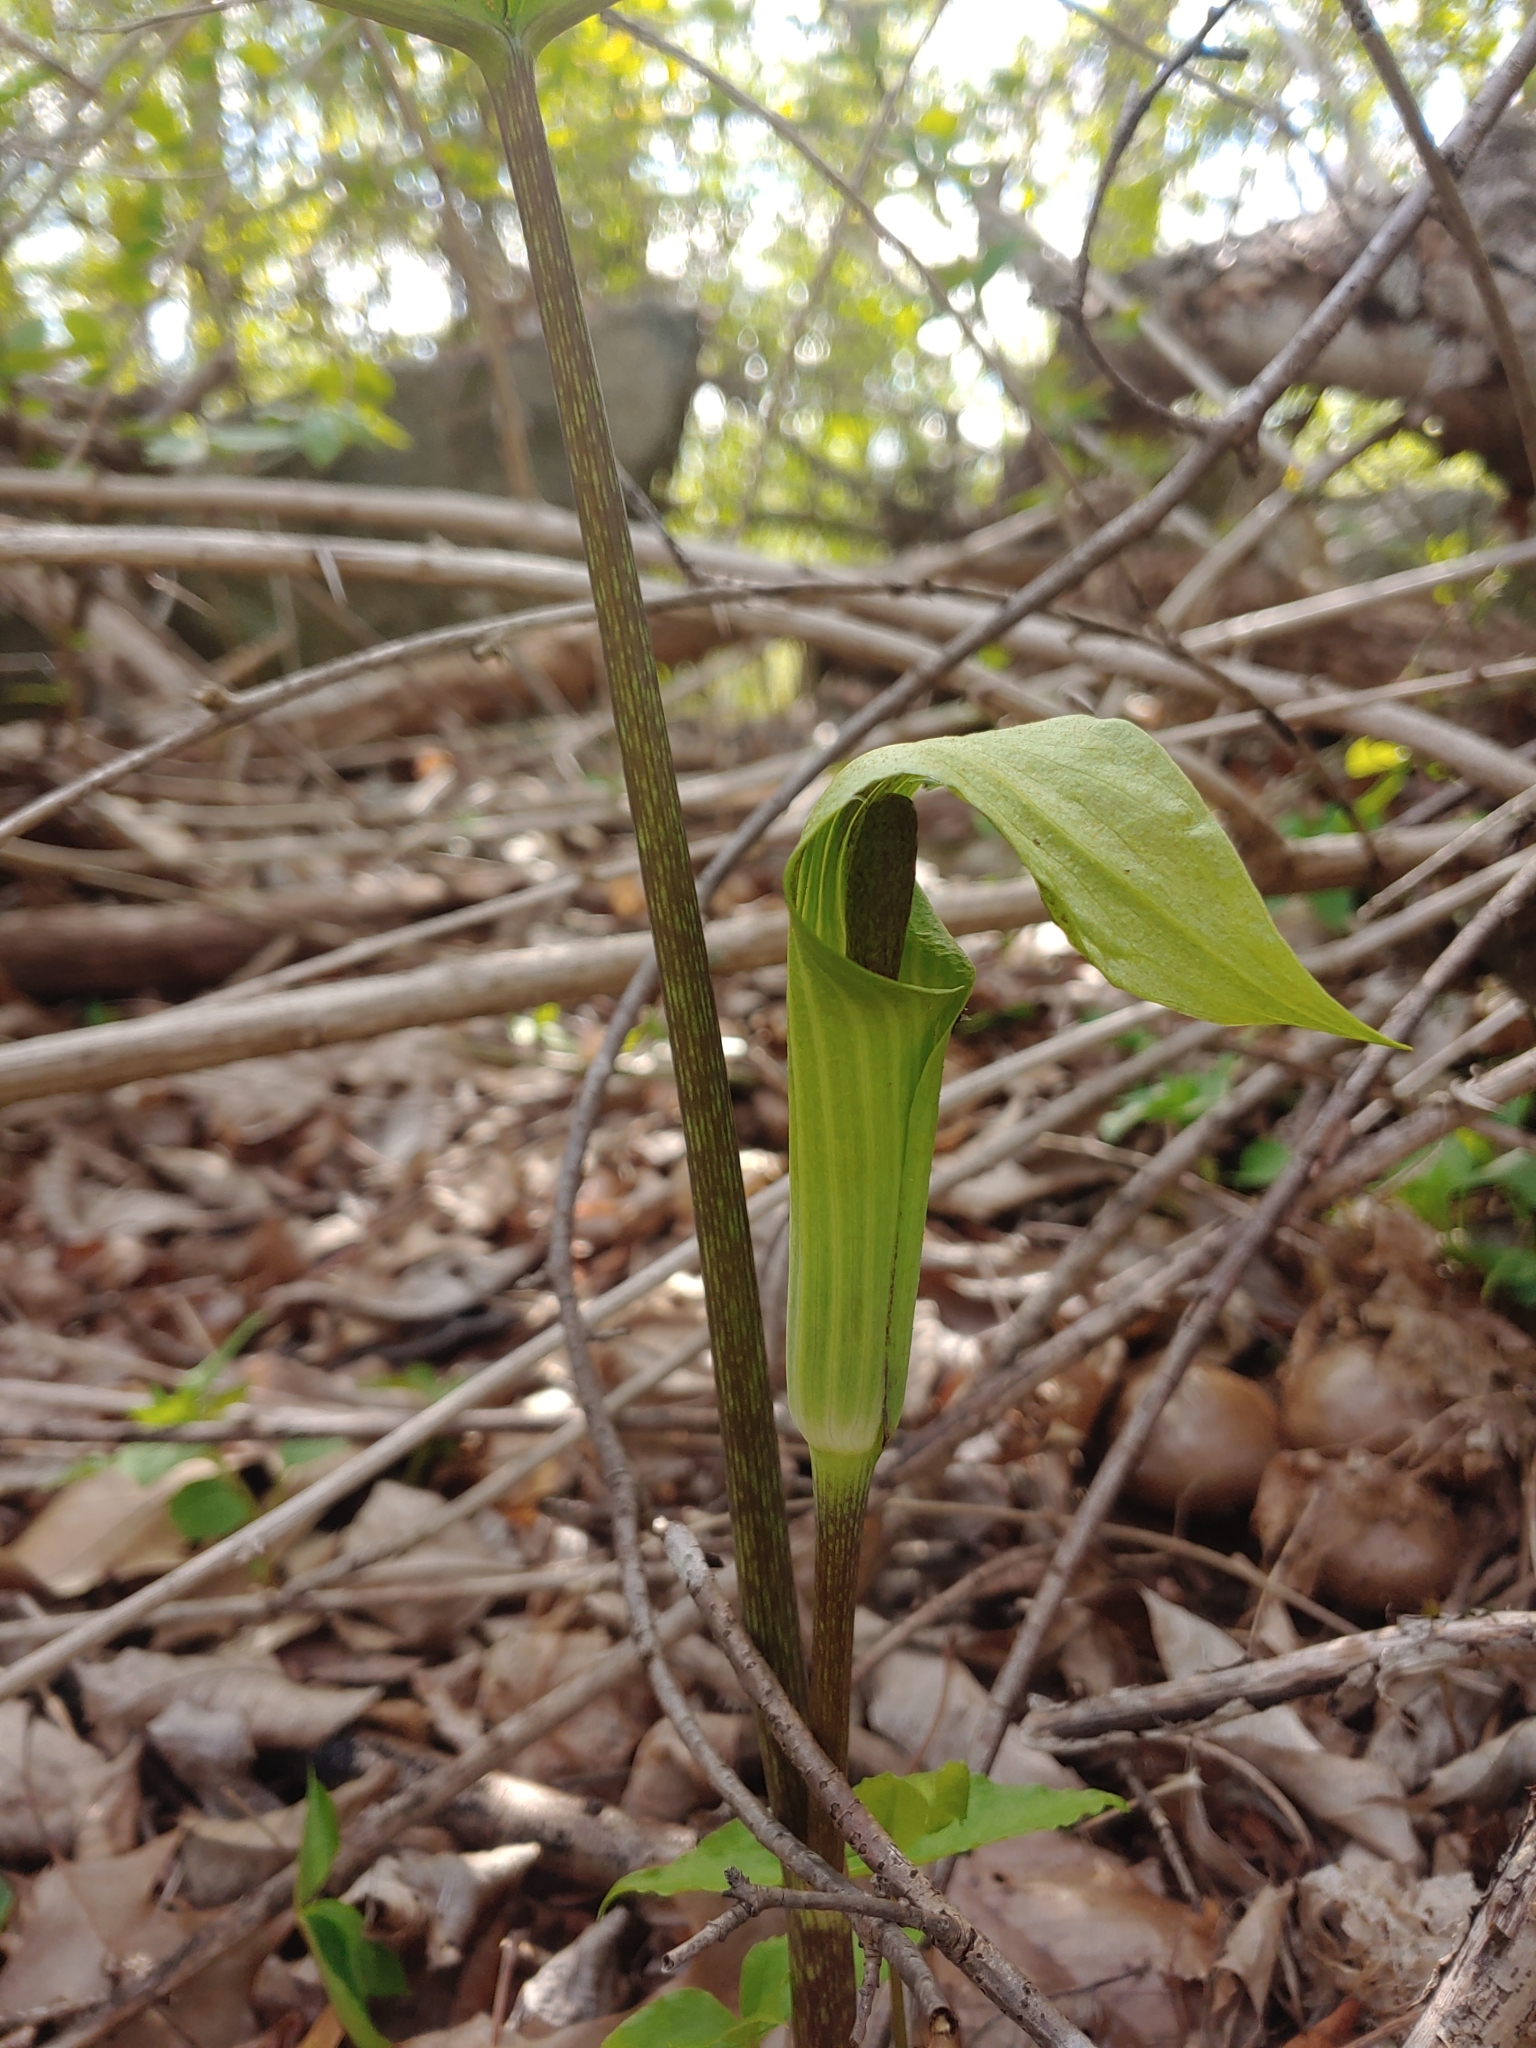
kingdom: Plantae
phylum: Tracheophyta
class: Liliopsida
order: Alismatales
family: Araceae
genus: Arisaema
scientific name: Arisaema triphyllum
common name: Jack-in-the-pulpit
